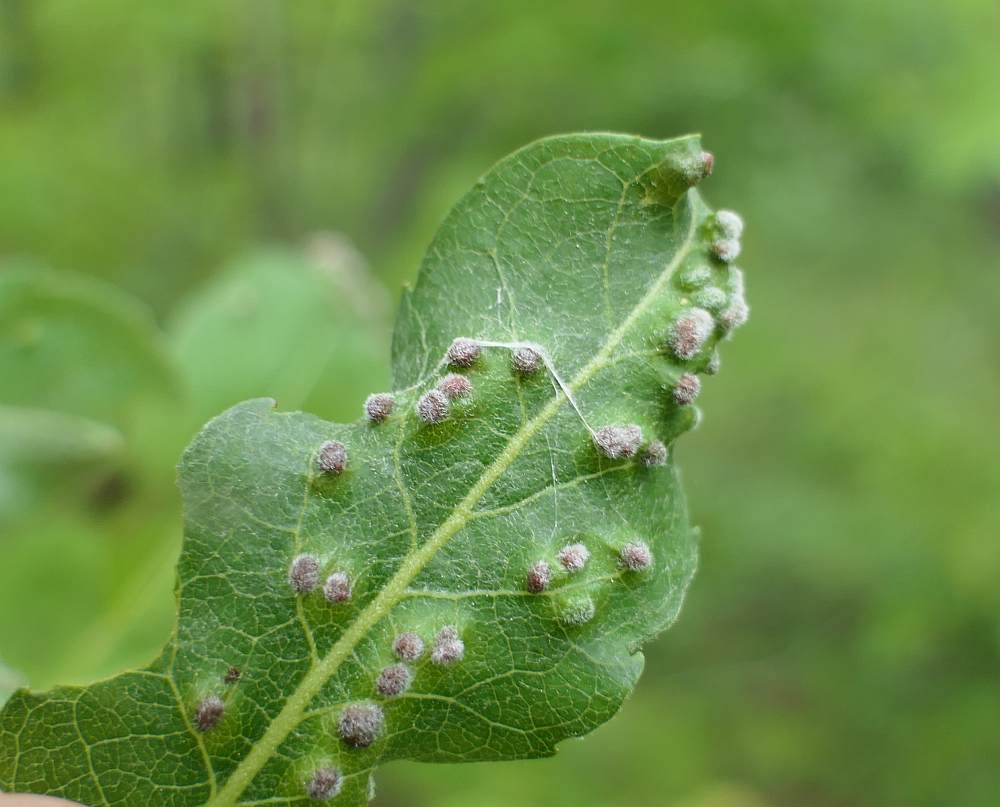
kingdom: Animalia
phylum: Arthropoda
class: Arachnida
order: Trombidiformes
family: Eriophyidae
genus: Aculus
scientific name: Aculus tetanothrix
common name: Willow bead gall mite
